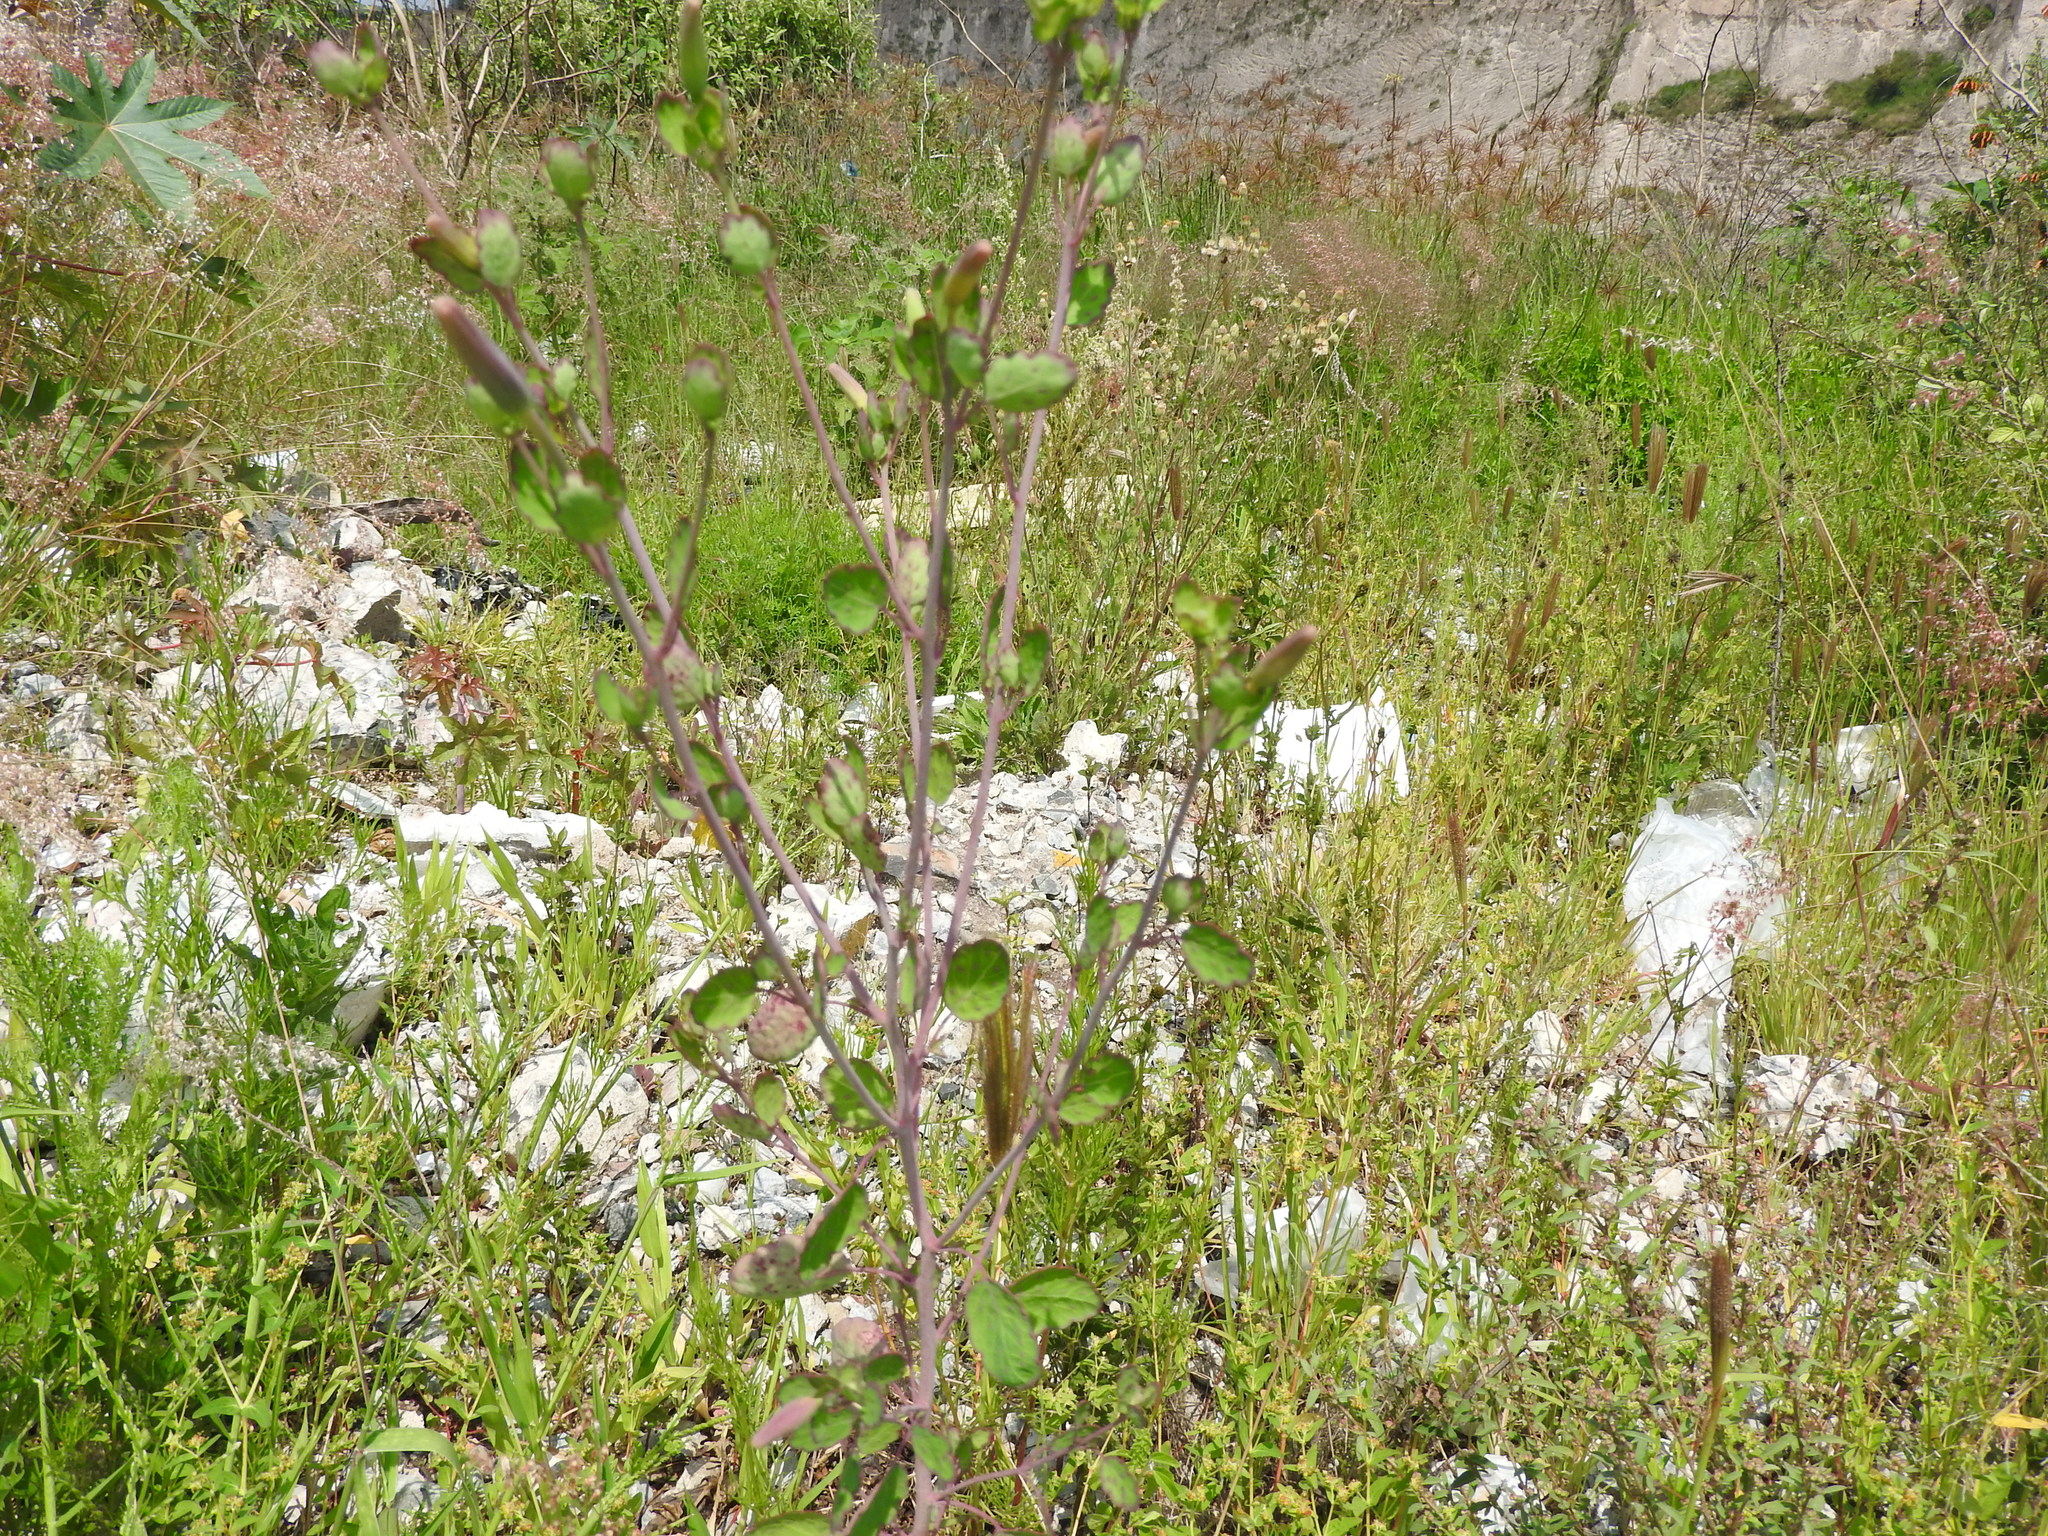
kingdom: Plantae
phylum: Tracheophyta
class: Magnoliopsida
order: Asterales
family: Asteraceae
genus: Porophyllum
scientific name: Porophyllum ruderale
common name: Yerba porosa
